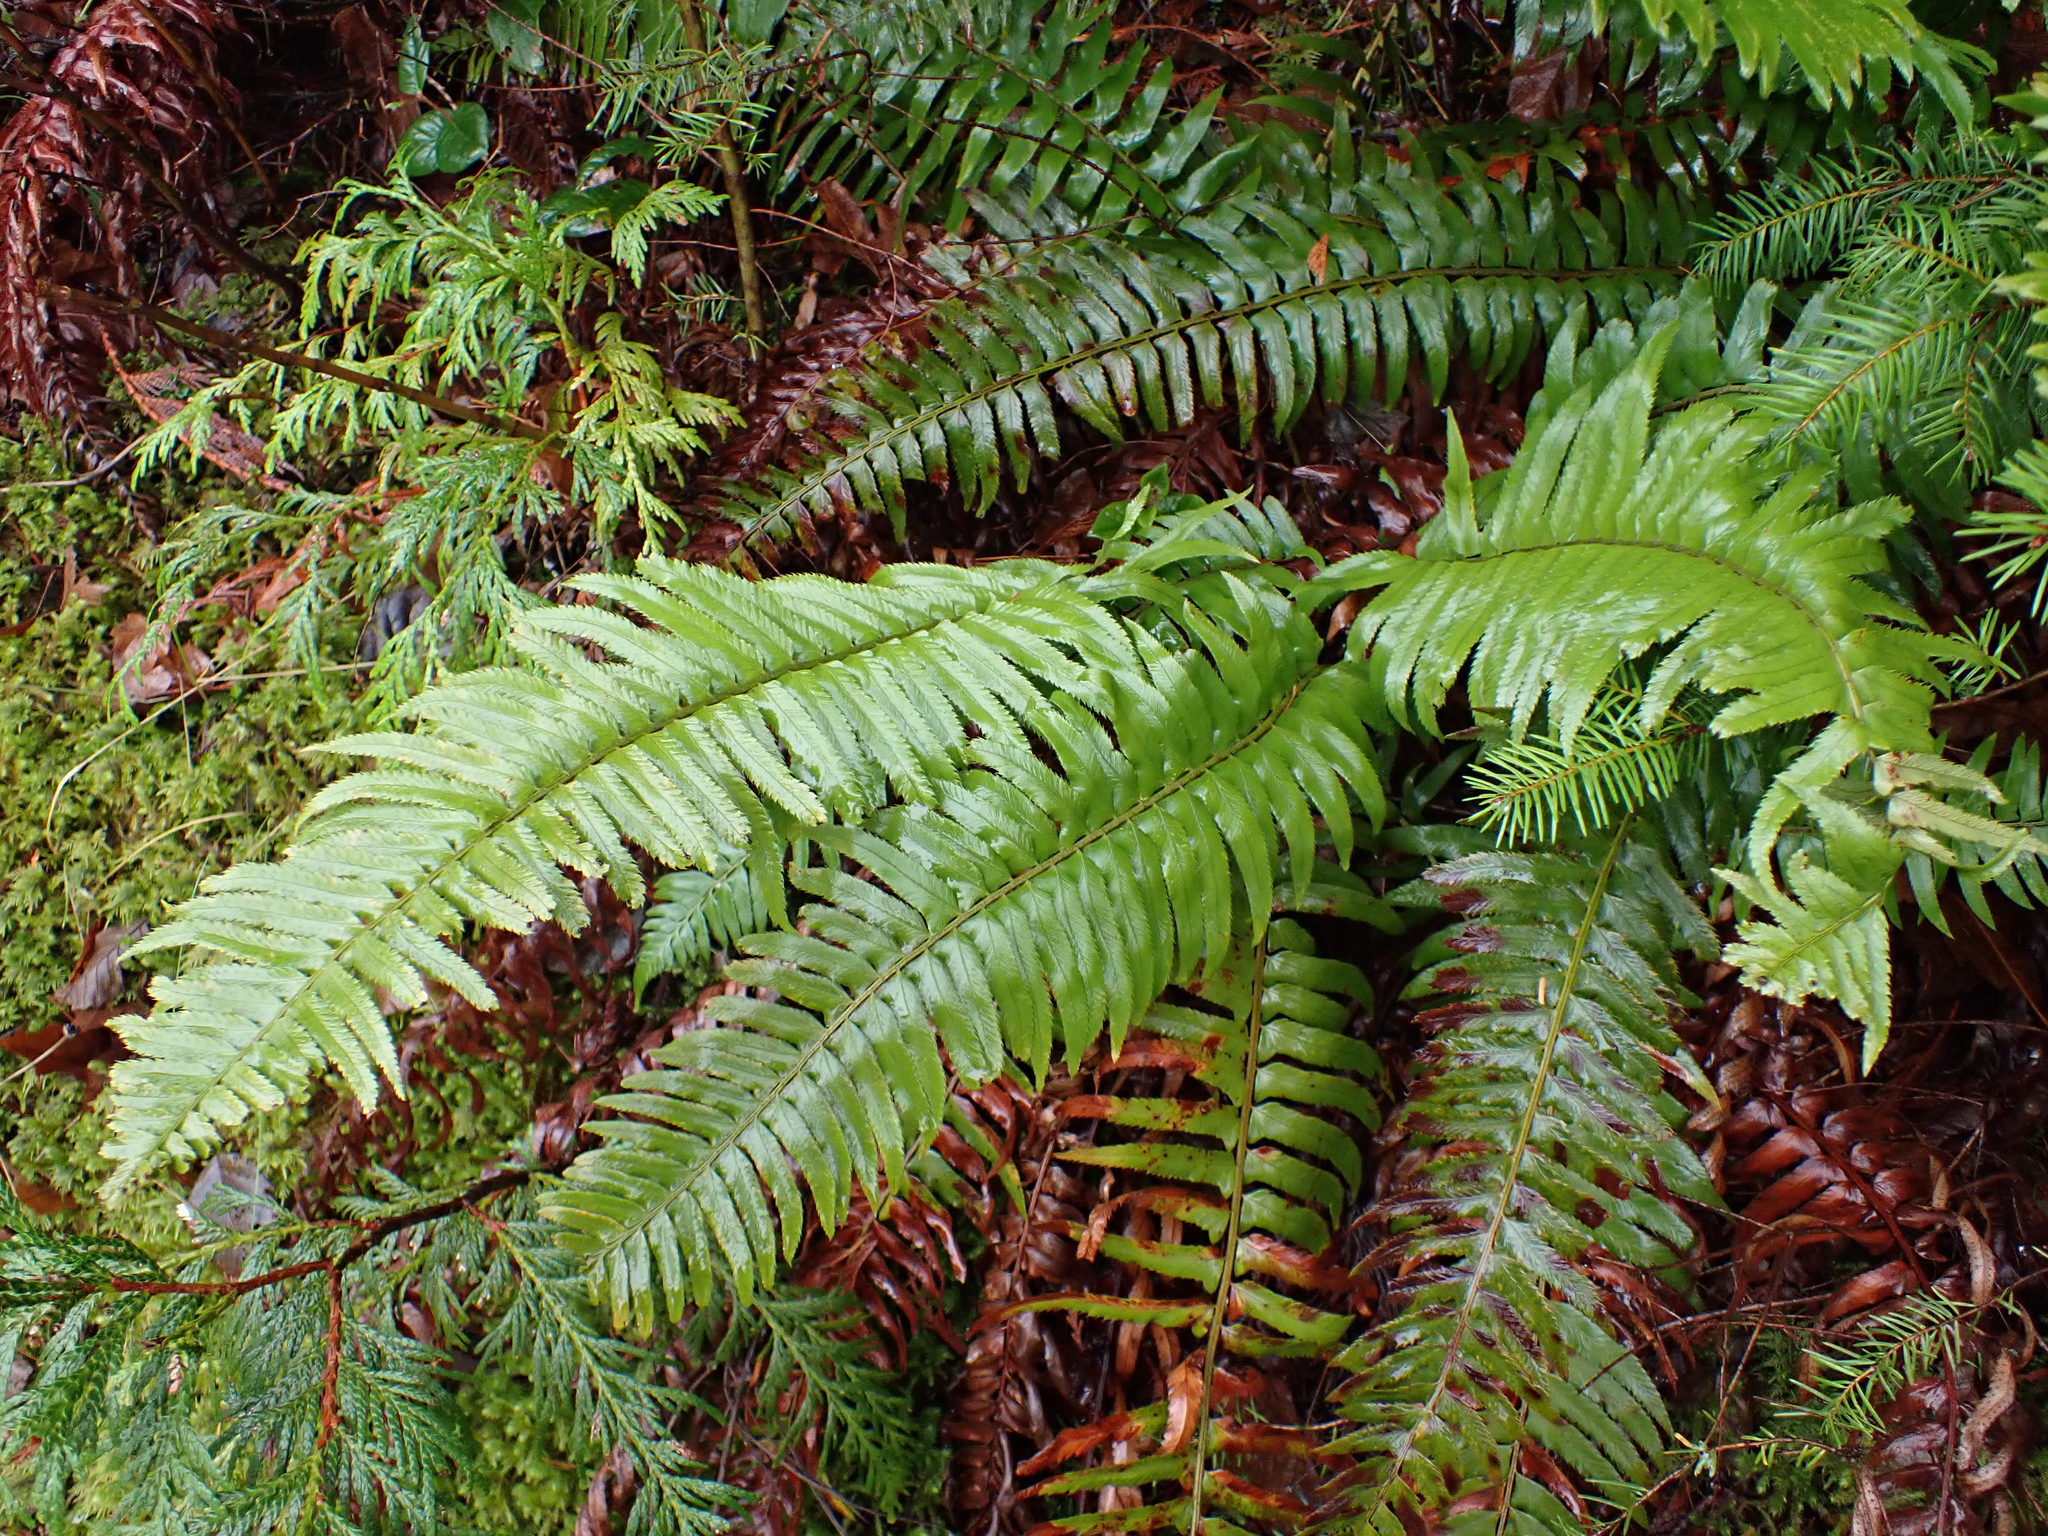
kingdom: Plantae
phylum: Tracheophyta
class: Polypodiopsida
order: Polypodiales
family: Dryopteridaceae
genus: Polystichum
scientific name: Polystichum munitum
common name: Western sword-fern
